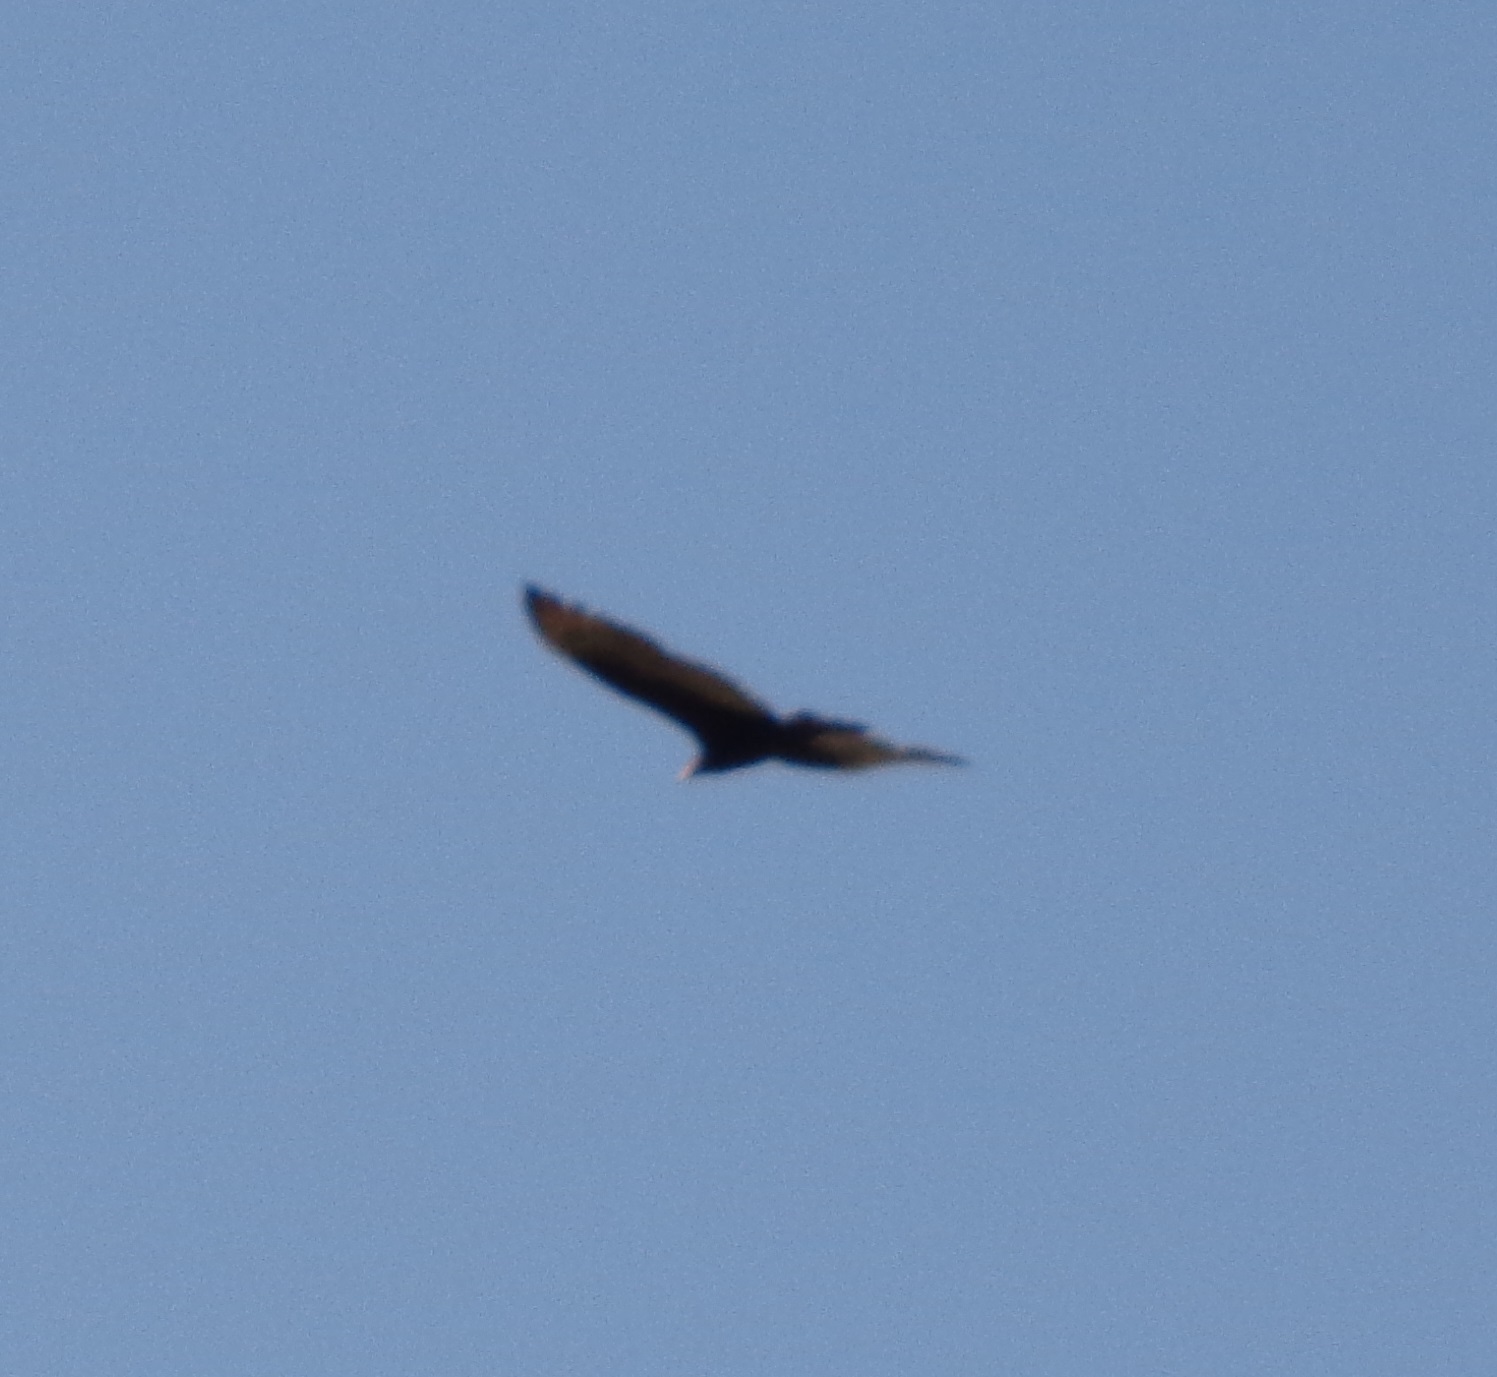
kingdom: Animalia
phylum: Chordata
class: Aves
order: Accipitriformes
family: Cathartidae
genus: Cathartes
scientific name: Cathartes aura
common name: Turkey vulture
